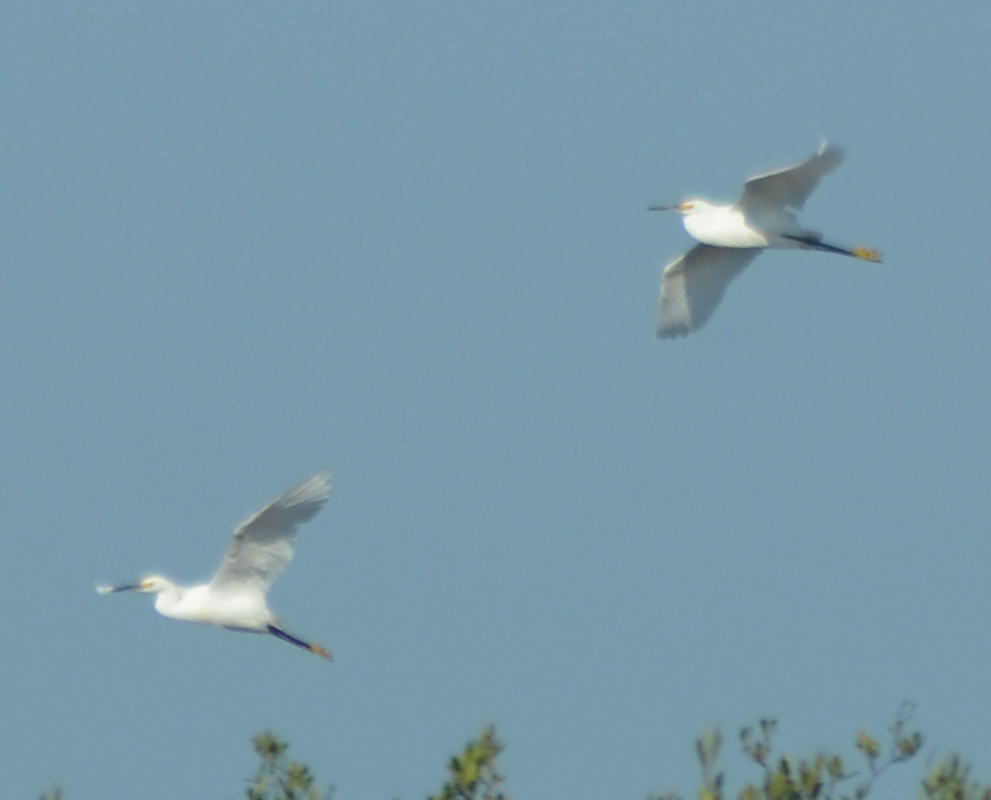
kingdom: Animalia
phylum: Chordata
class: Aves
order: Pelecaniformes
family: Ardeidae
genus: Egretta
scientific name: Egretta thula
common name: Snowy egret
